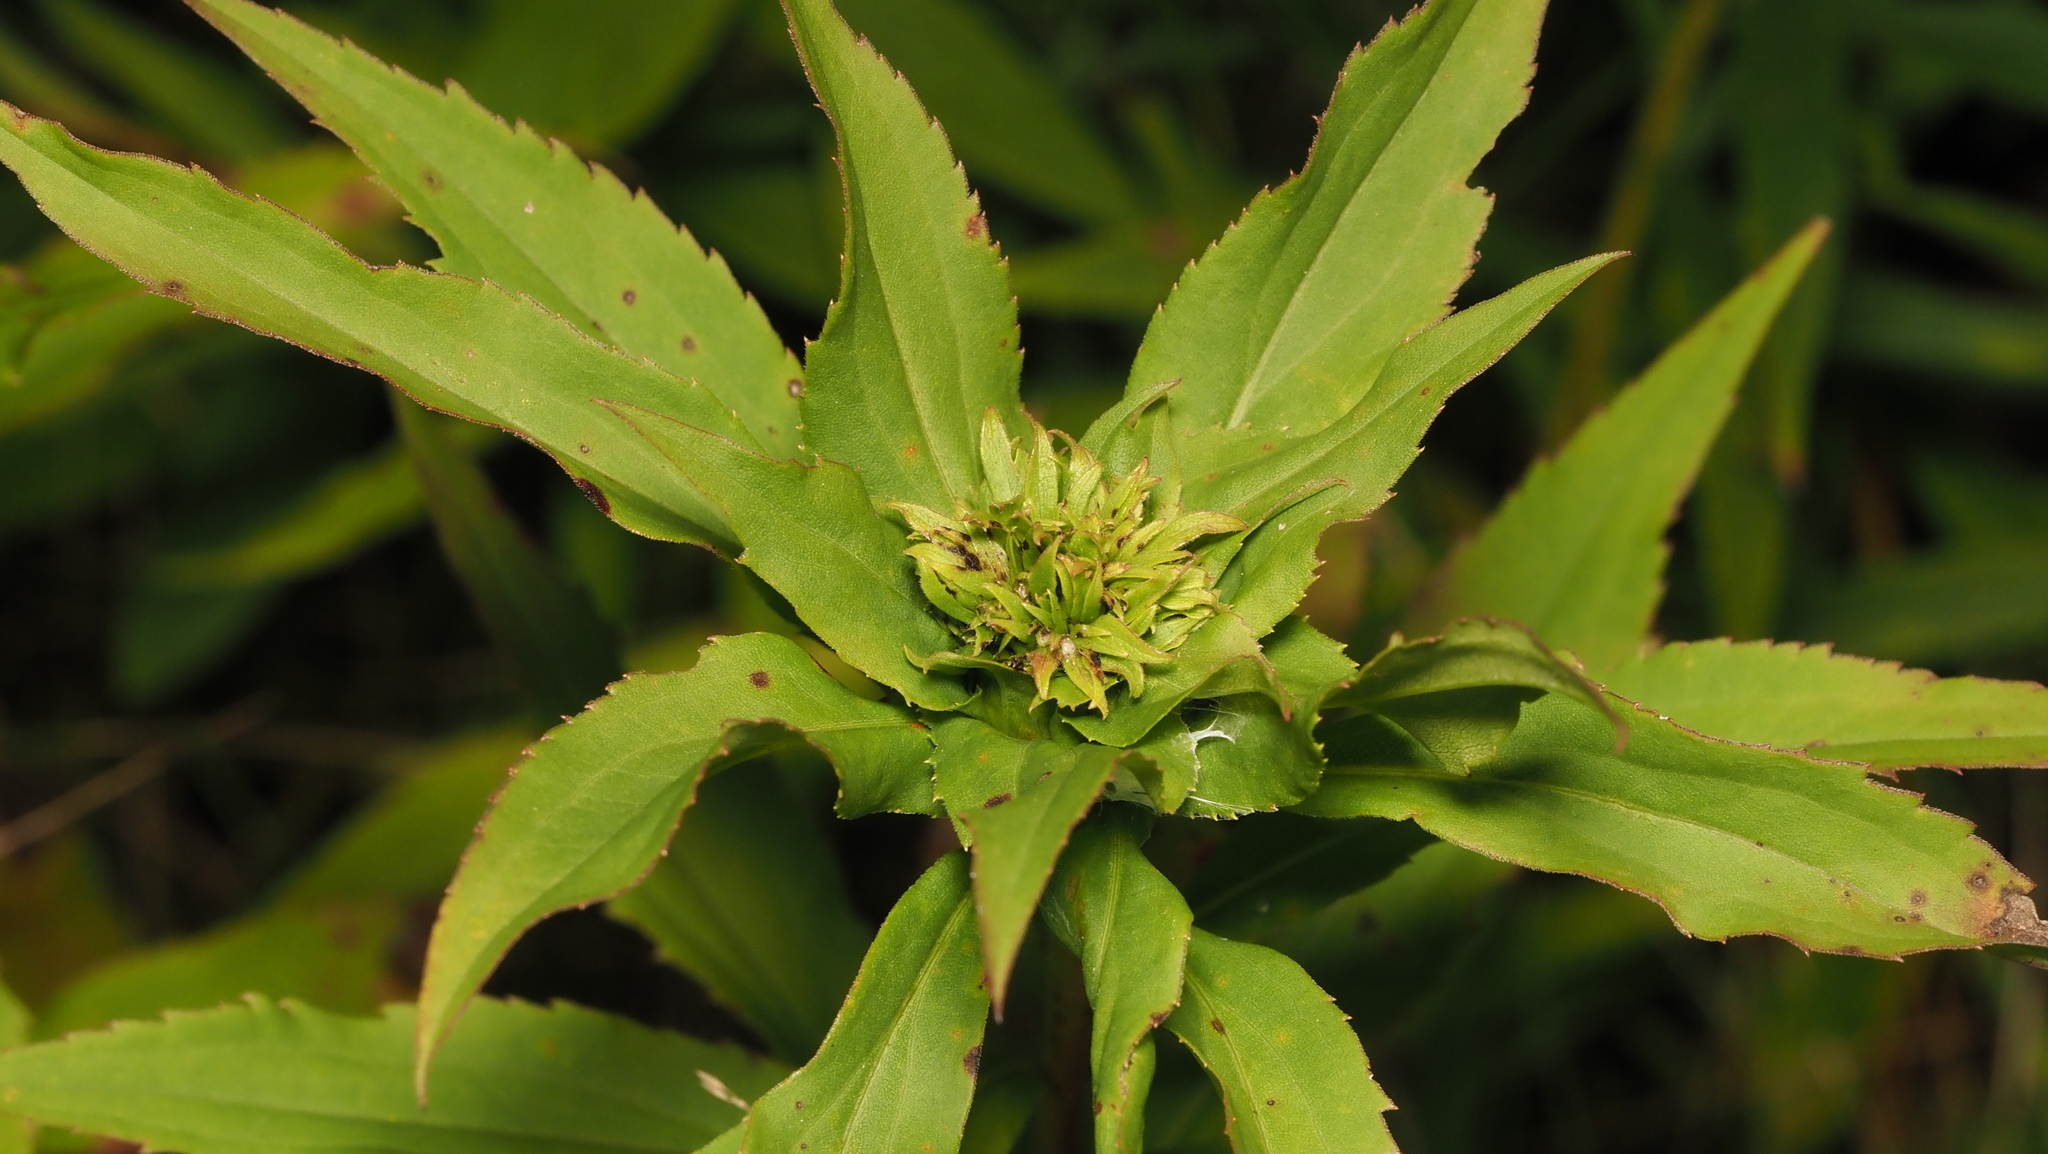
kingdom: Animalia
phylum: Arthropoda
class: Insecta
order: Diptera
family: Cecidomyiidae
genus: Rhopalomyia
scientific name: Rhopalomyia capitata
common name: Giant goldenrod bunch gall midge
